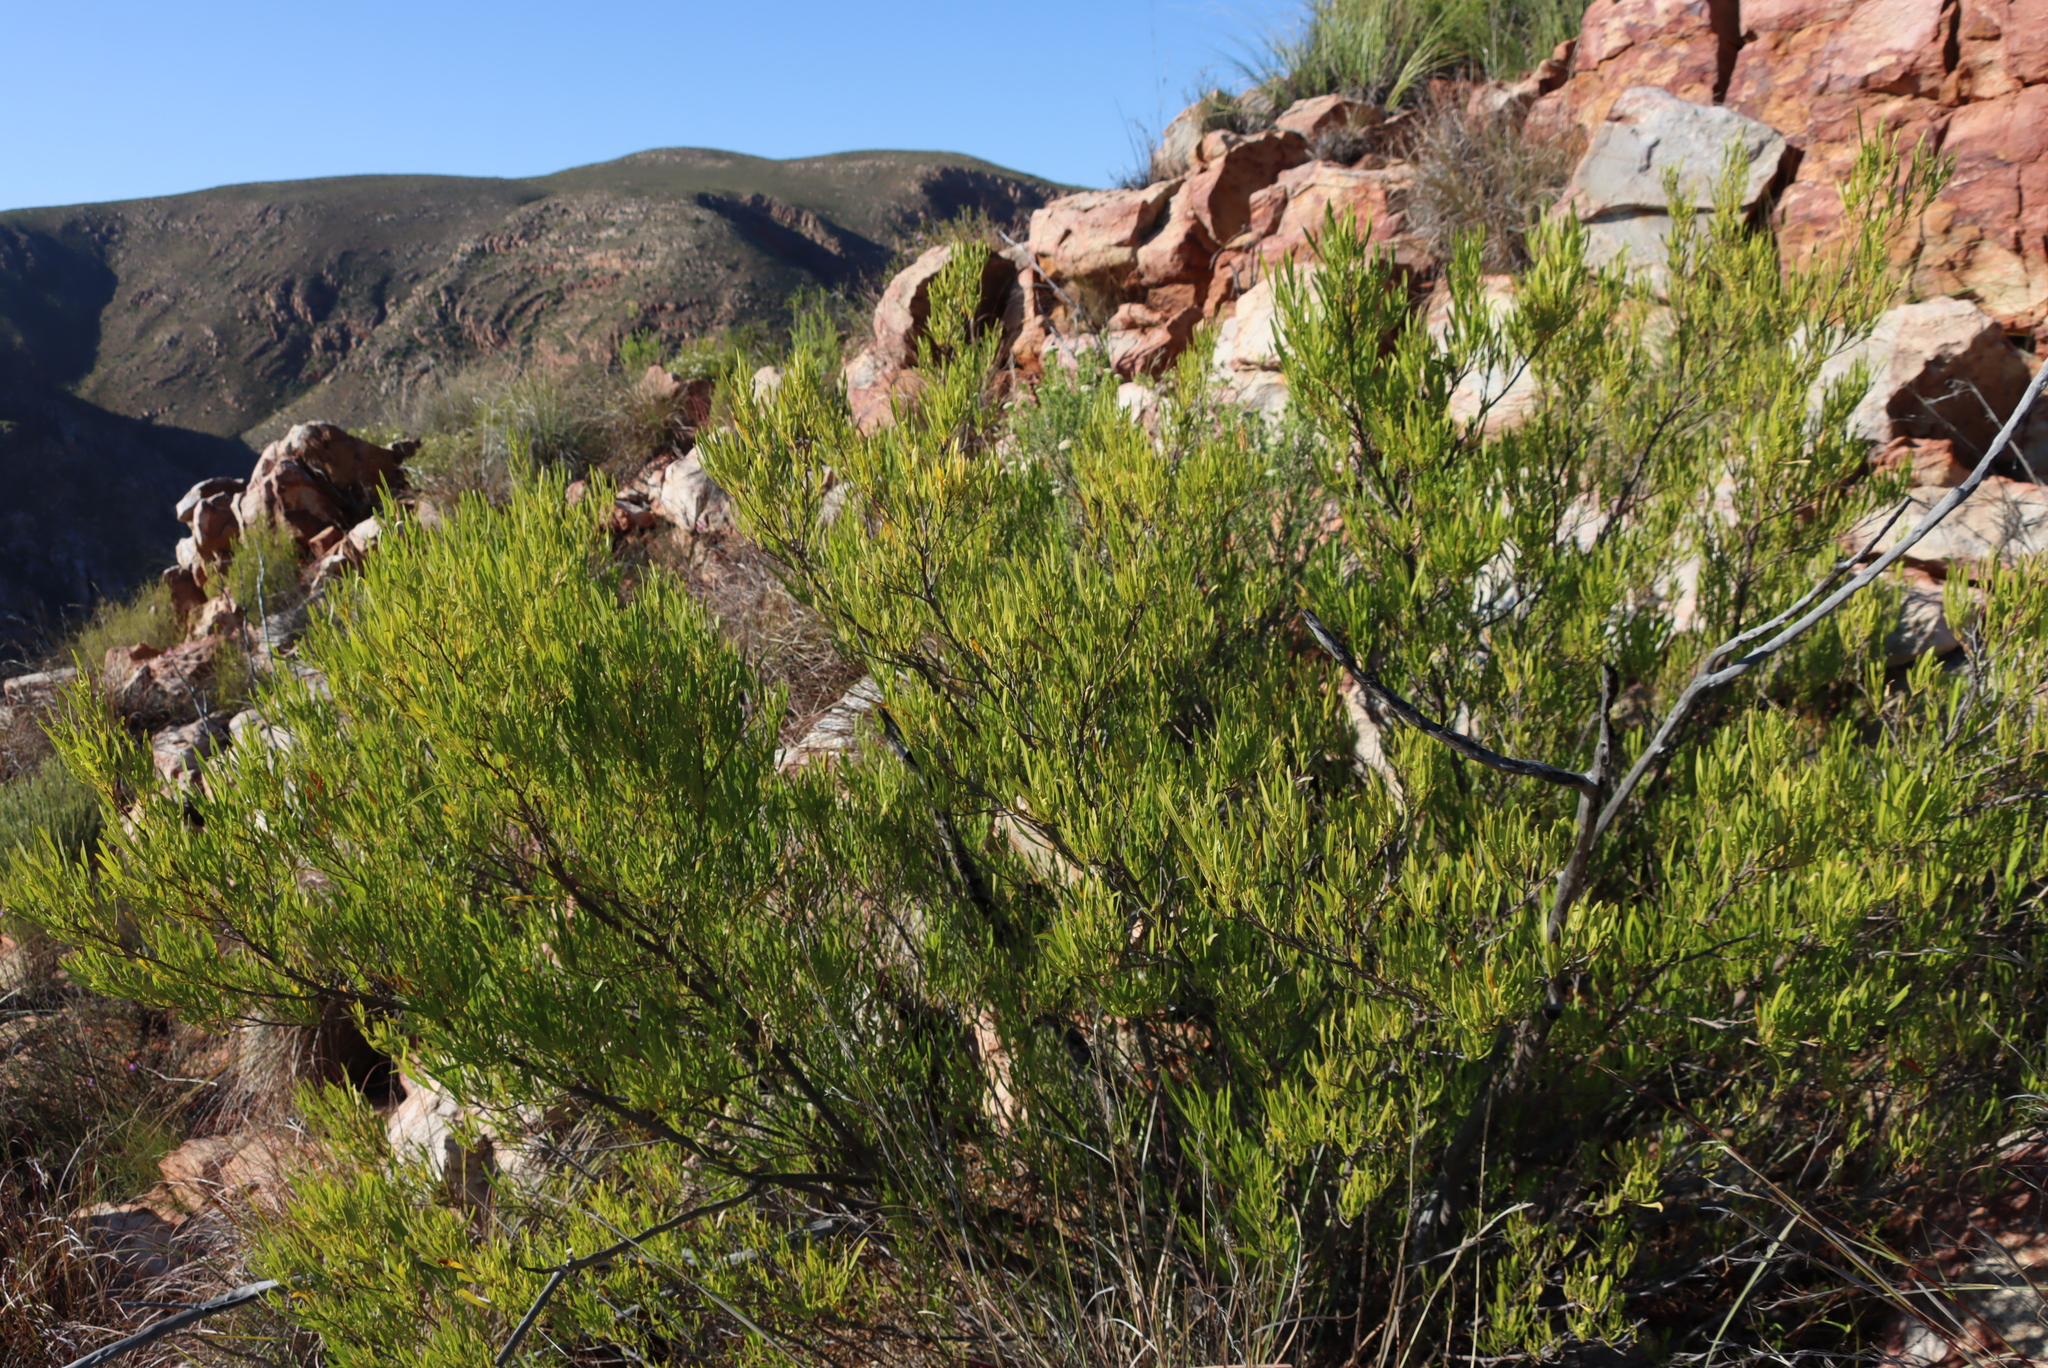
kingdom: Plantae
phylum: Tracheophyta
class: Magnoliopsida
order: Sapindales
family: Sapindaceae
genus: Dodonaea
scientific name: Dodonaea viscosa
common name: Hopbush
